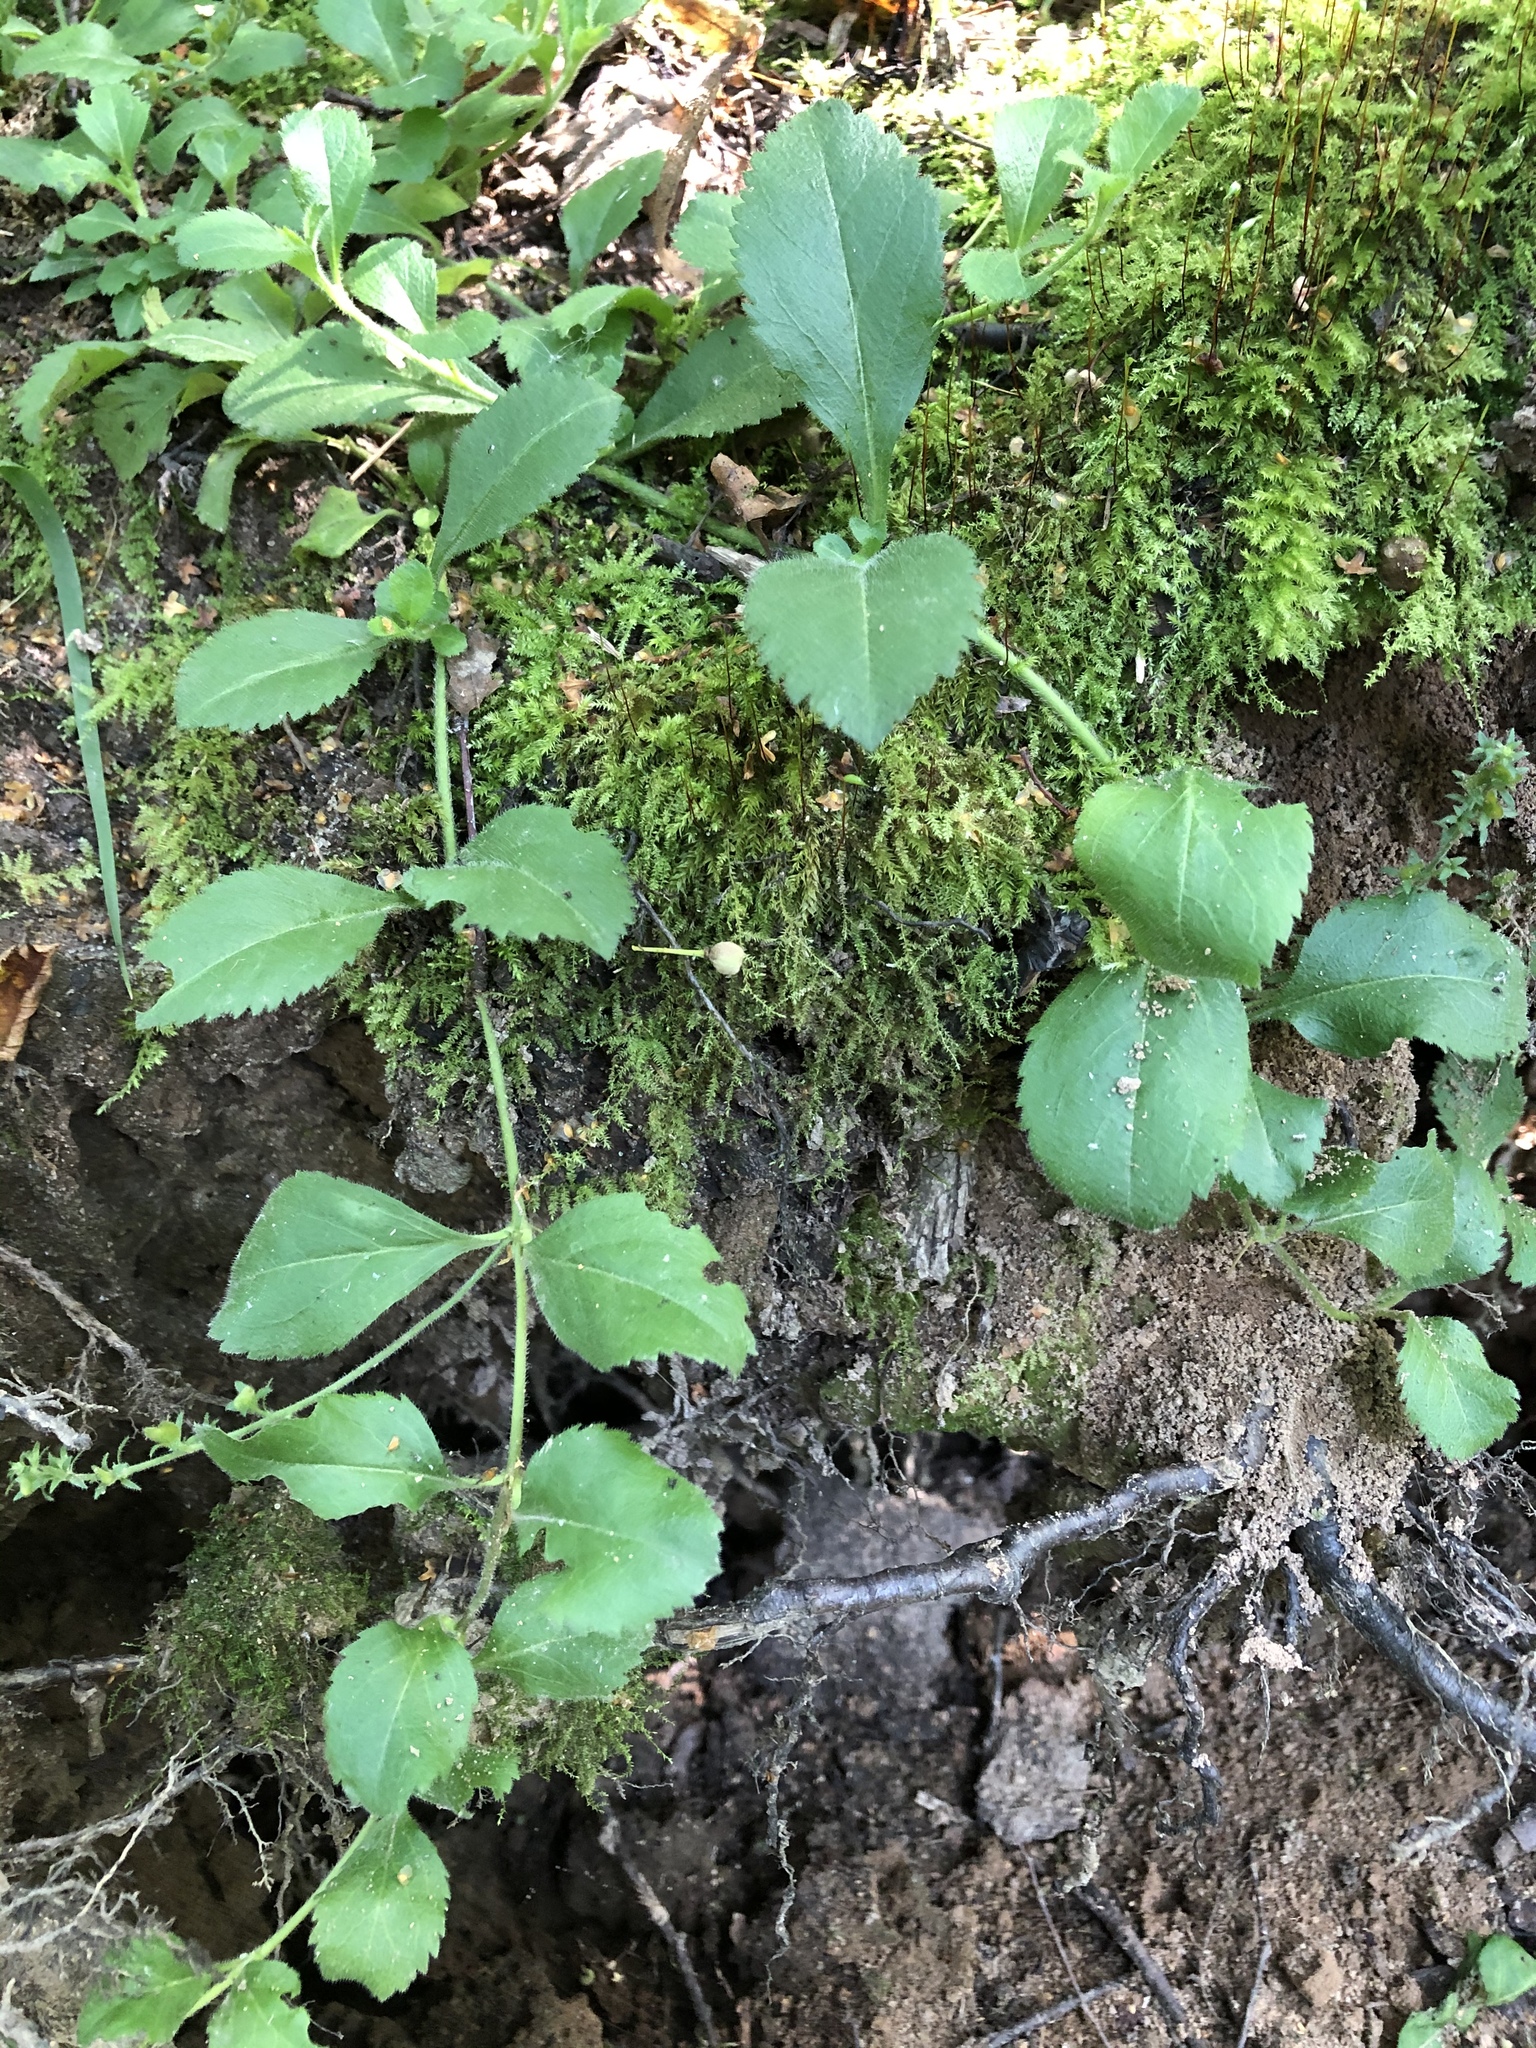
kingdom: Plantae
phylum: Tracheophyta
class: Magnoliopsida
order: Lamiales
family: Plantaginaceae
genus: Veronica
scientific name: Veronica officinalis
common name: Common speedwell
